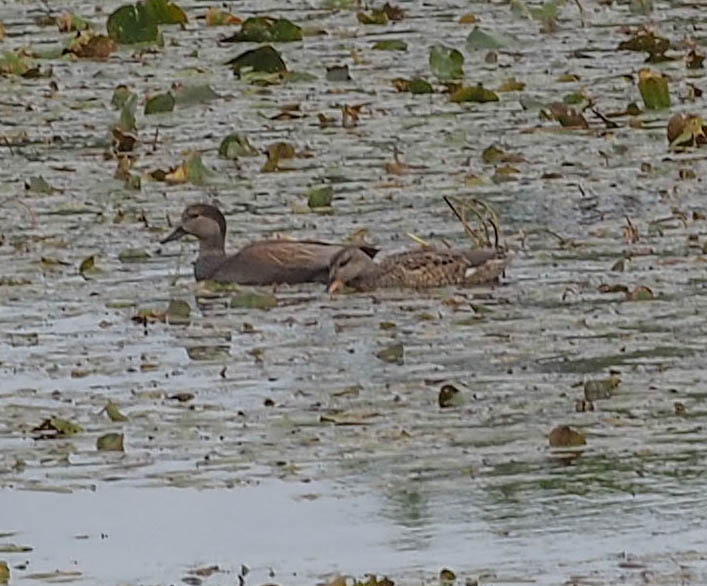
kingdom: Animalia
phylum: Chordata
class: Aves
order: Anseriformes
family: Anatidae
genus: Mareca
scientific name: Mareca strepera
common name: Gadwall
